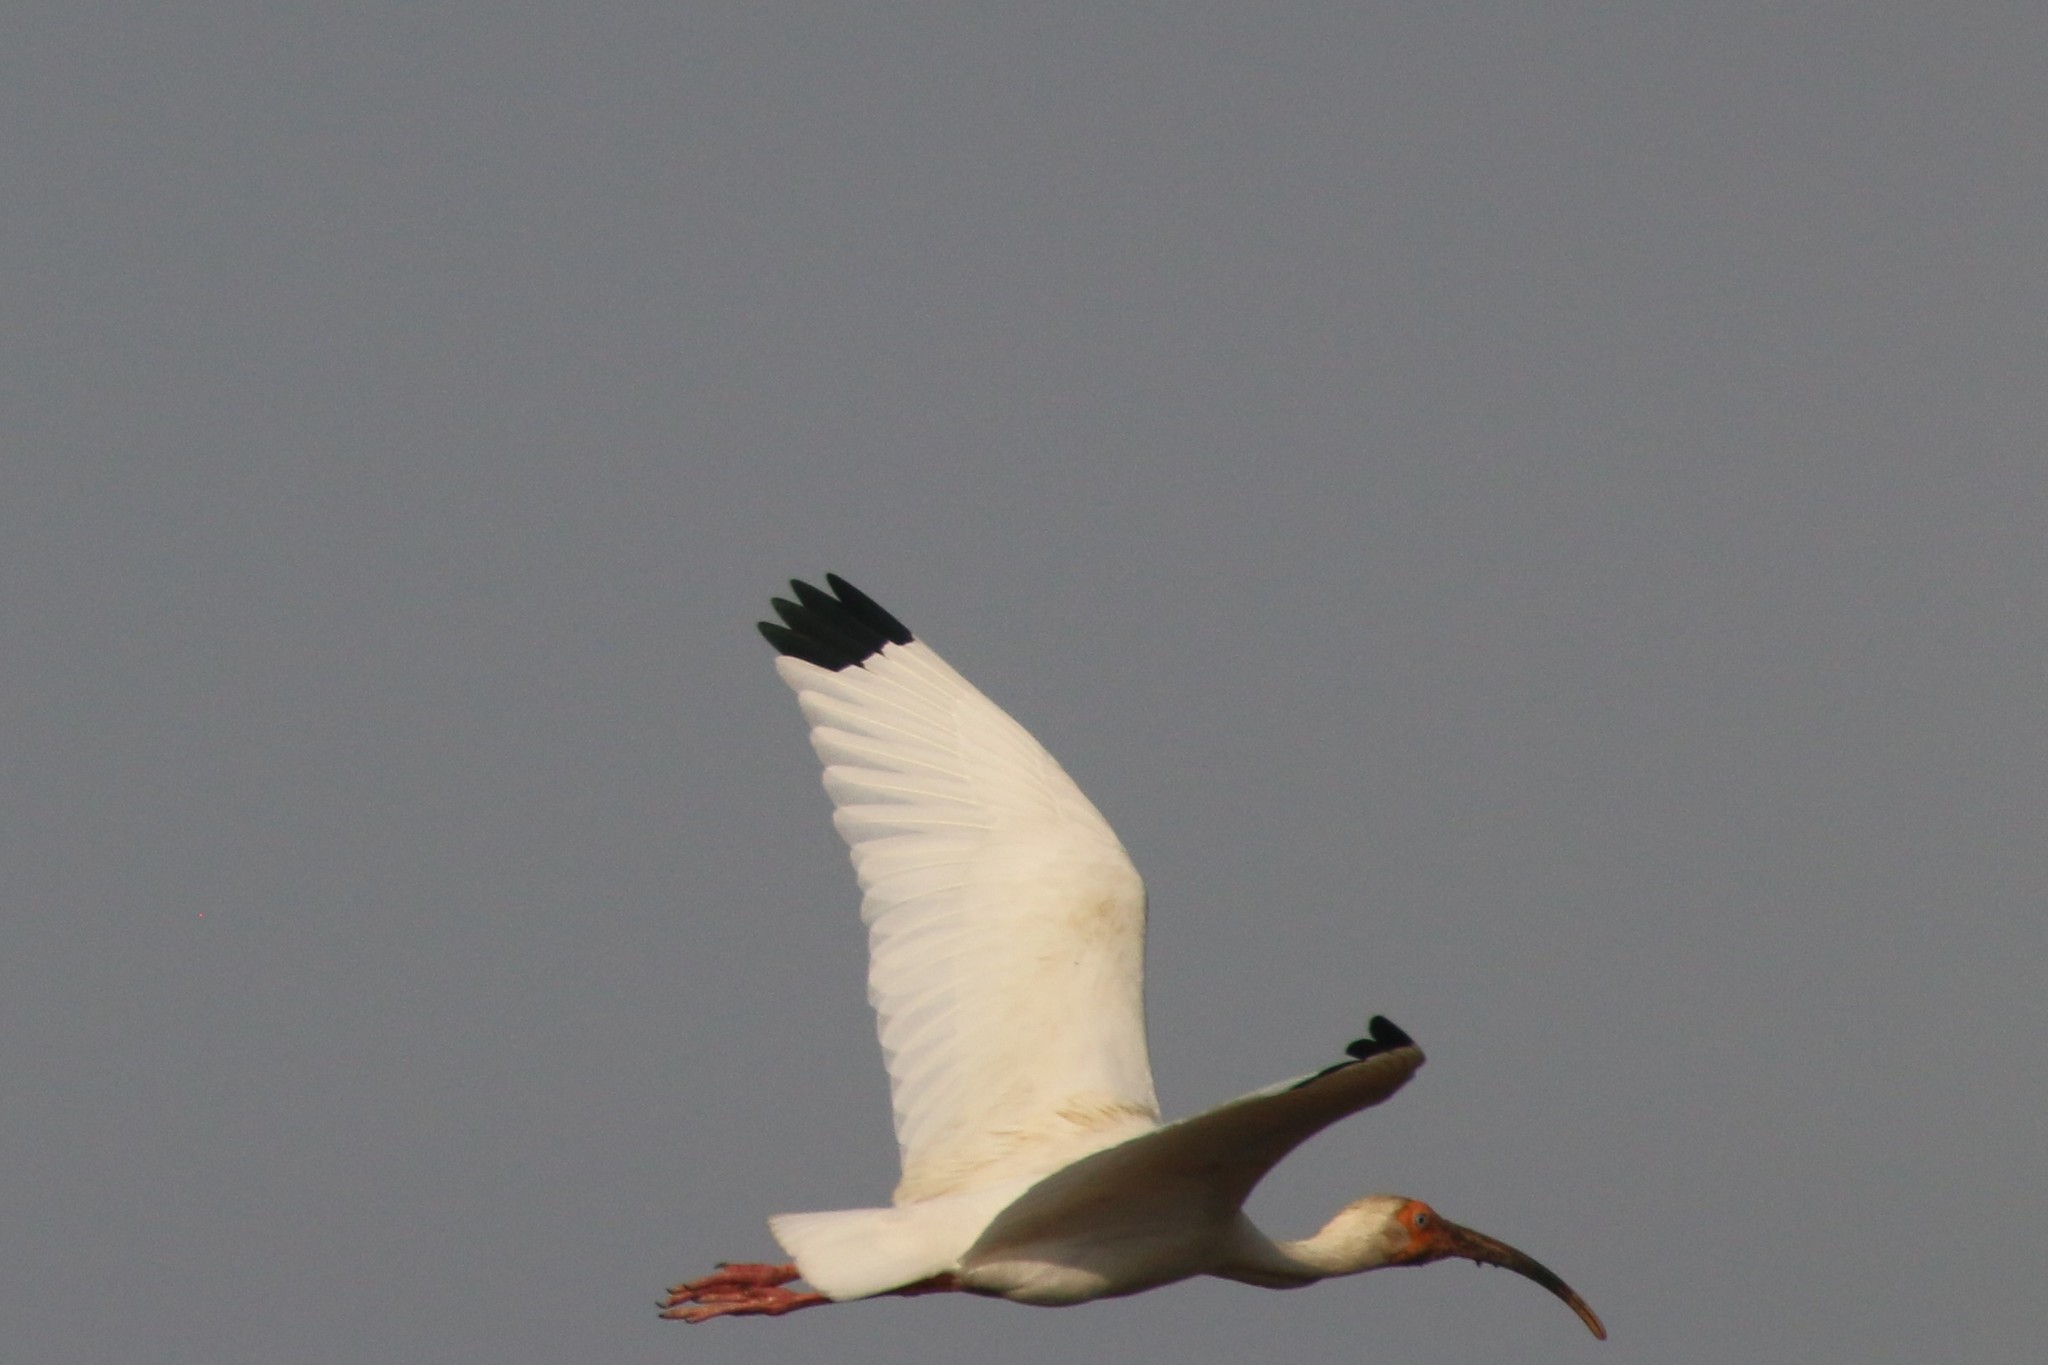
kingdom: Animalia
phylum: Chordata
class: Aves
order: Pelecaniformes
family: Threskiornithidae
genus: Eudocimus
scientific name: Eudocimus albus
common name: White ibis
